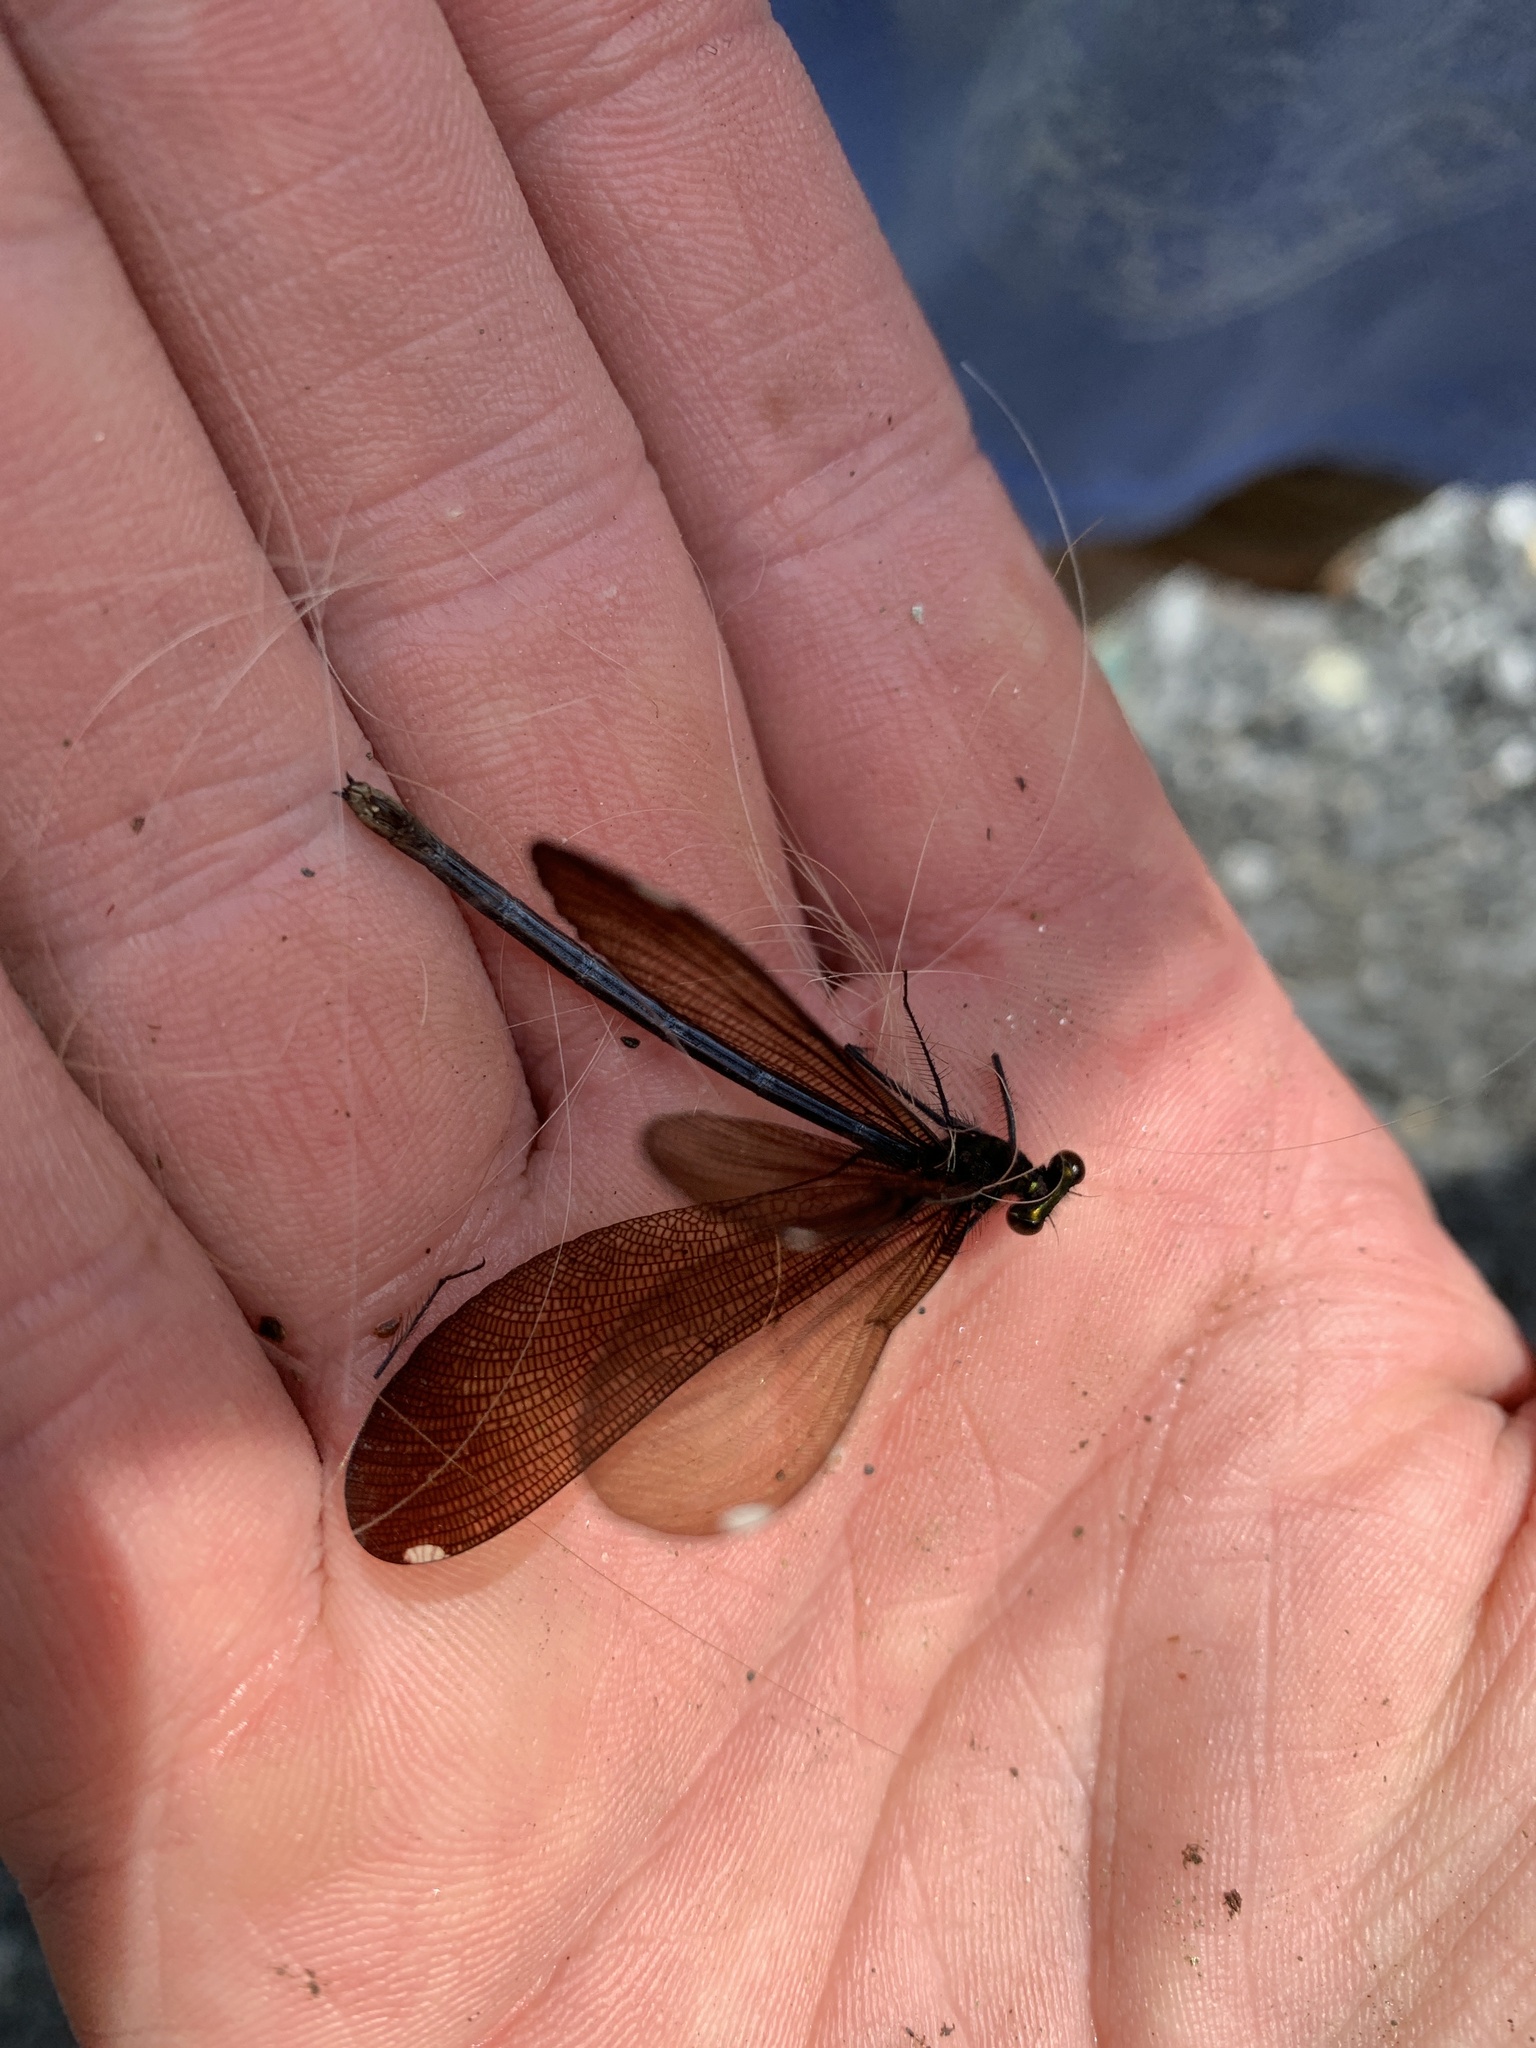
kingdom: Animalia
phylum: Arthropoda
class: Insecta
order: Odonata
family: Calopterygidae
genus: Calopteryx
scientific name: Calopteryx maculata
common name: Ebony jewelwing
